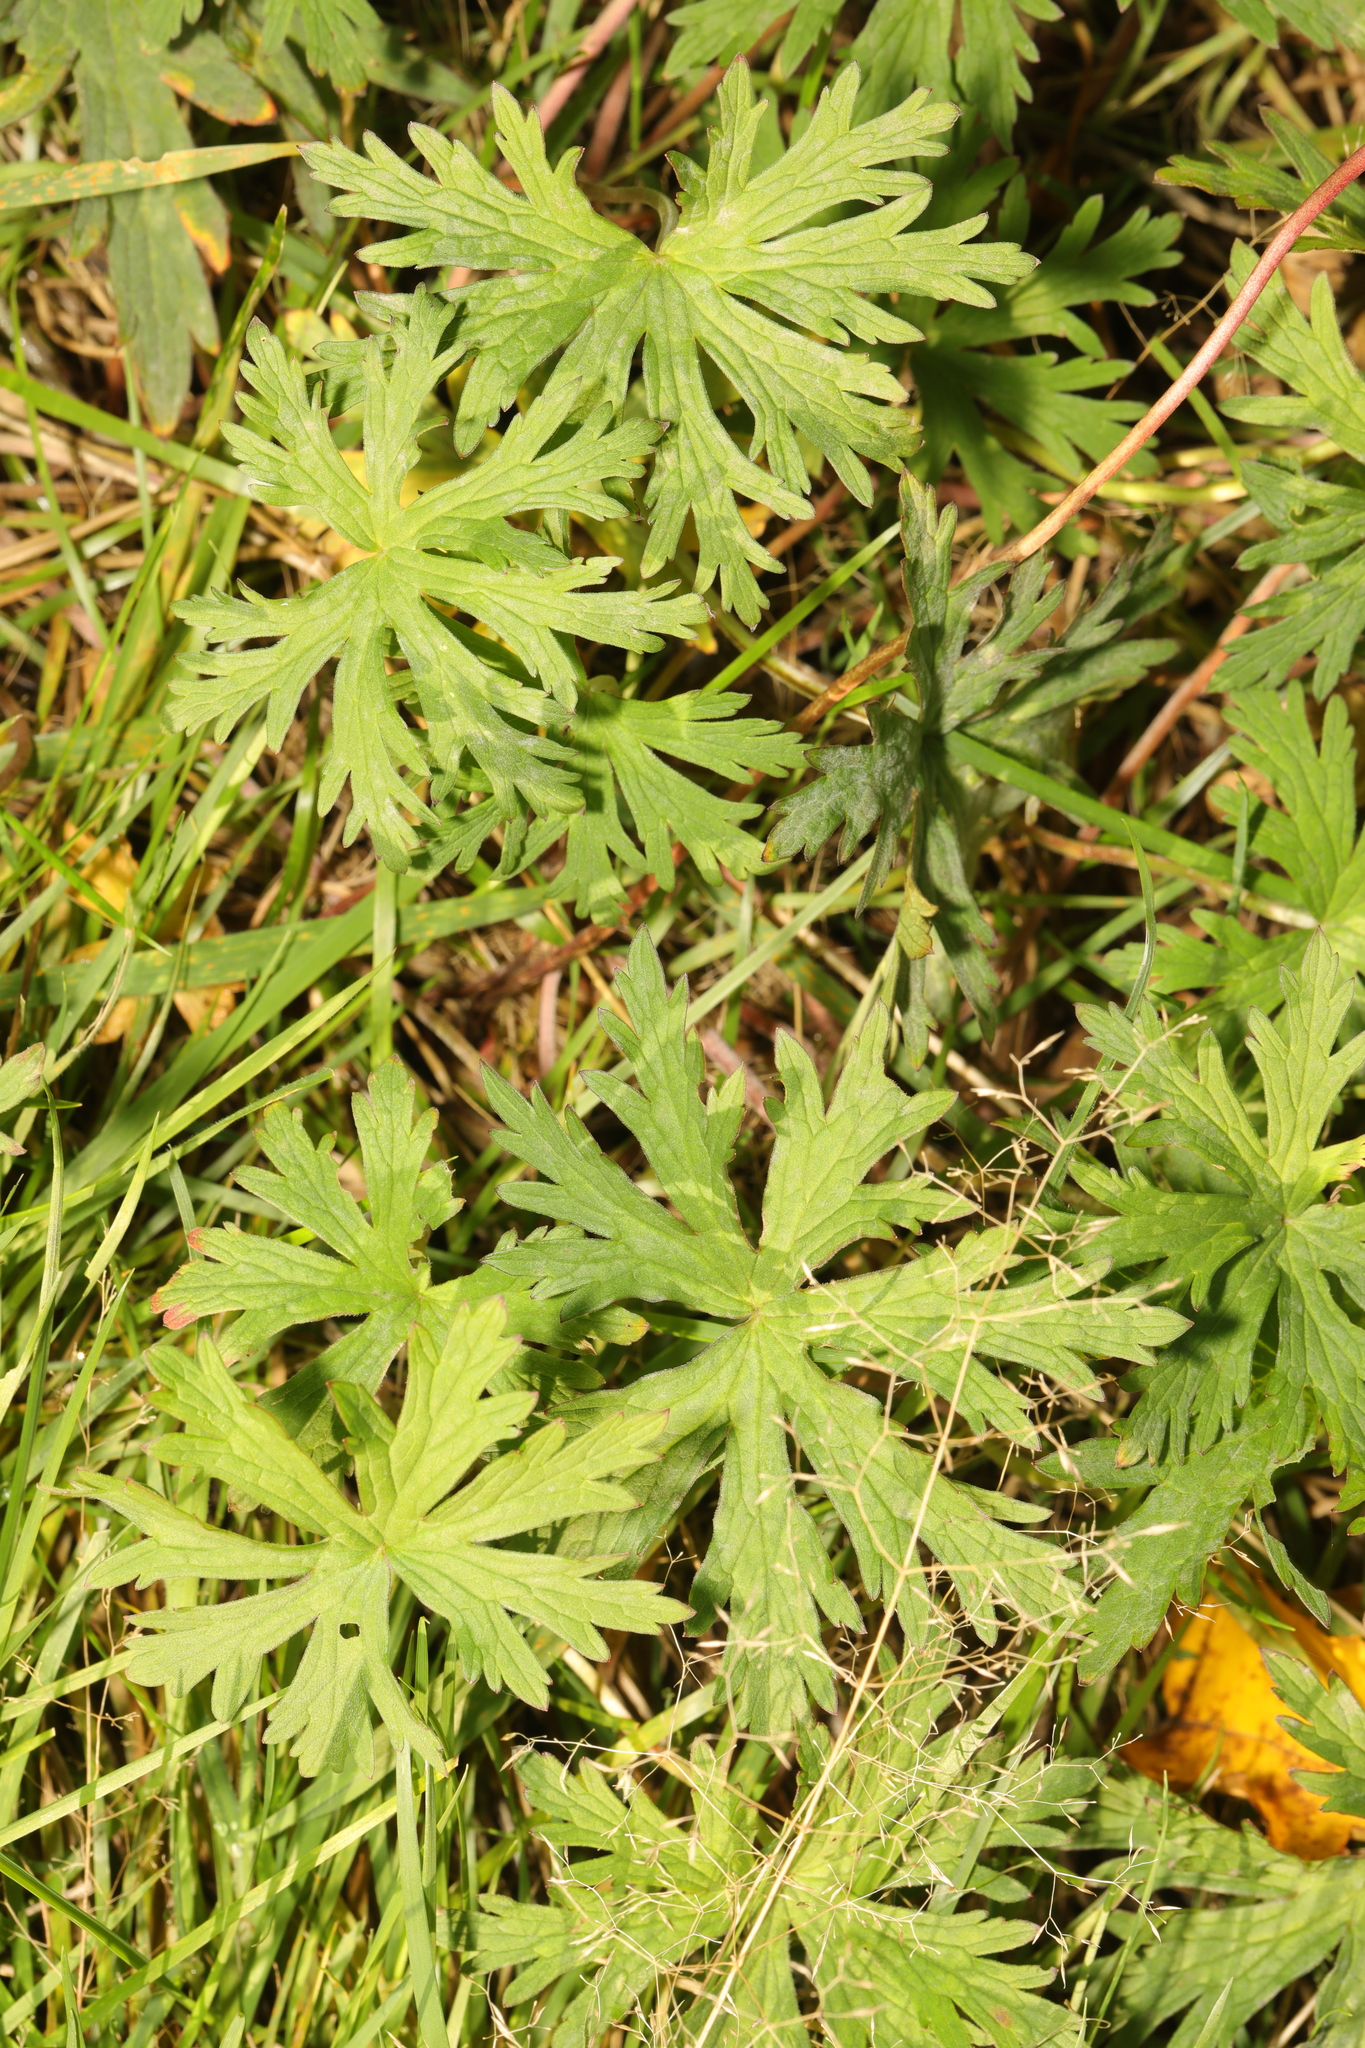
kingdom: Plantae
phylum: Tracheophyta
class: Magnoliopsida
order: Geraniales
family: Geraniaceae
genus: Geranium
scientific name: Geranium pratense
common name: Meadow crane's-bill
